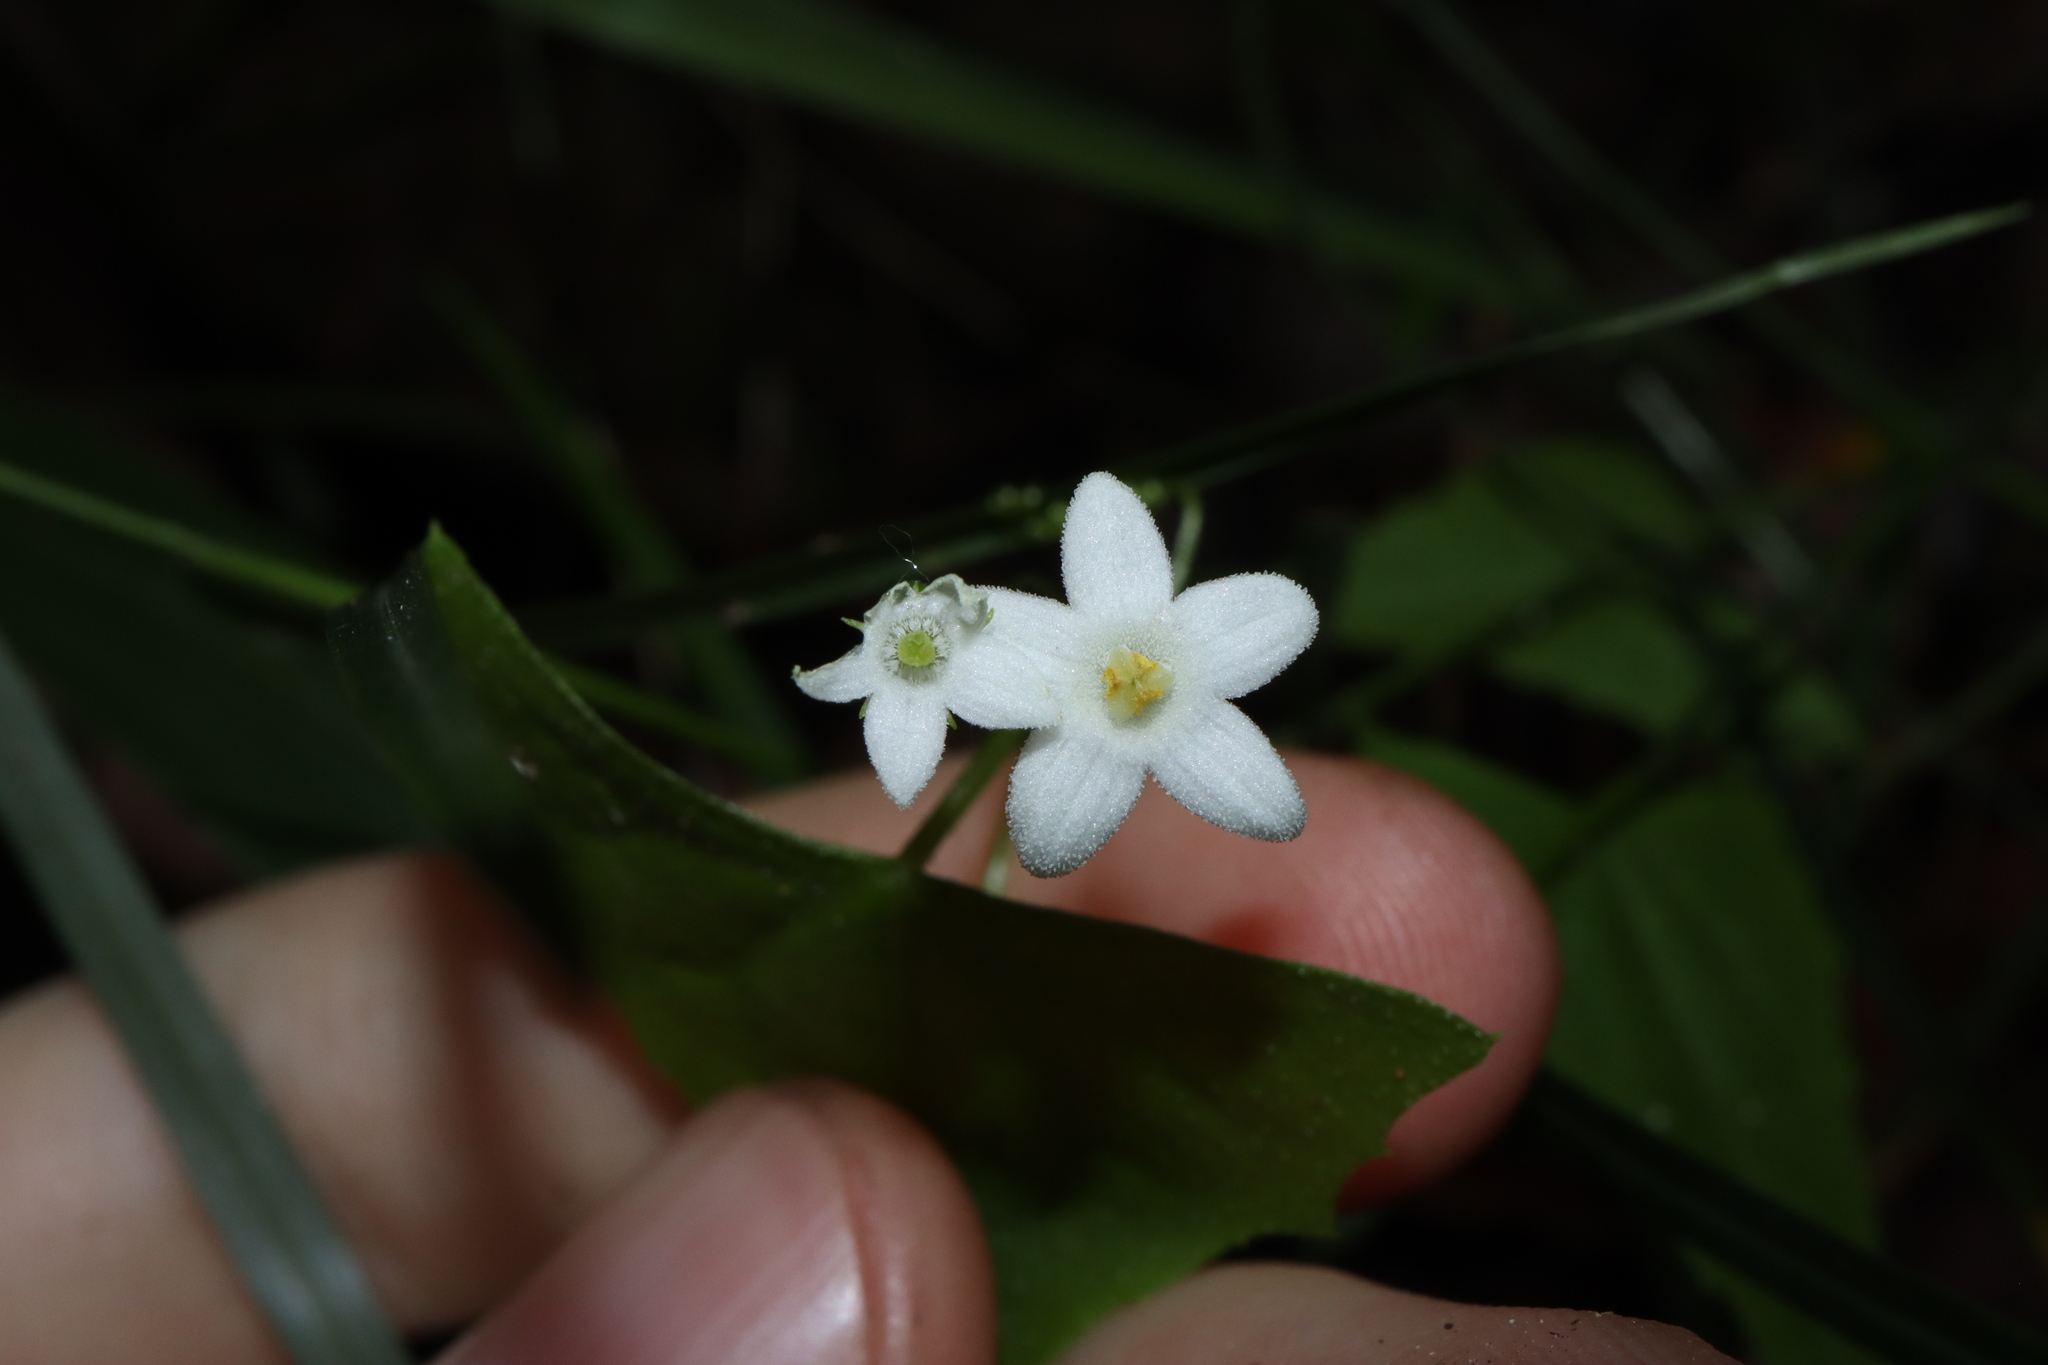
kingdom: Plantae
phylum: Tracheophyta
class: Magnoliopsida
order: Cucurbitales
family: Cucurbitaceae
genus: Zehneria
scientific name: Zehneria cunninghamii
